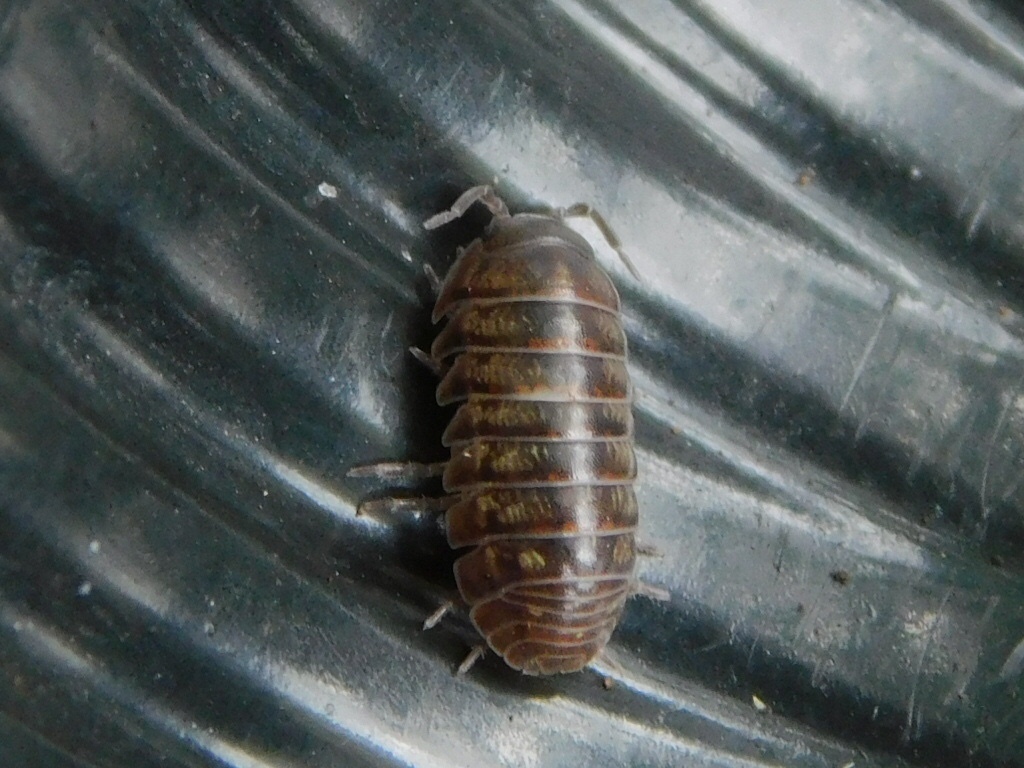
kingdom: Animalia
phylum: Arthropoda
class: Malacostraca
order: Isopoda
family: Armadillidiidae
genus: Armadillidium
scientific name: Armadillidium vulgare
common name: Common pill woodlouse
